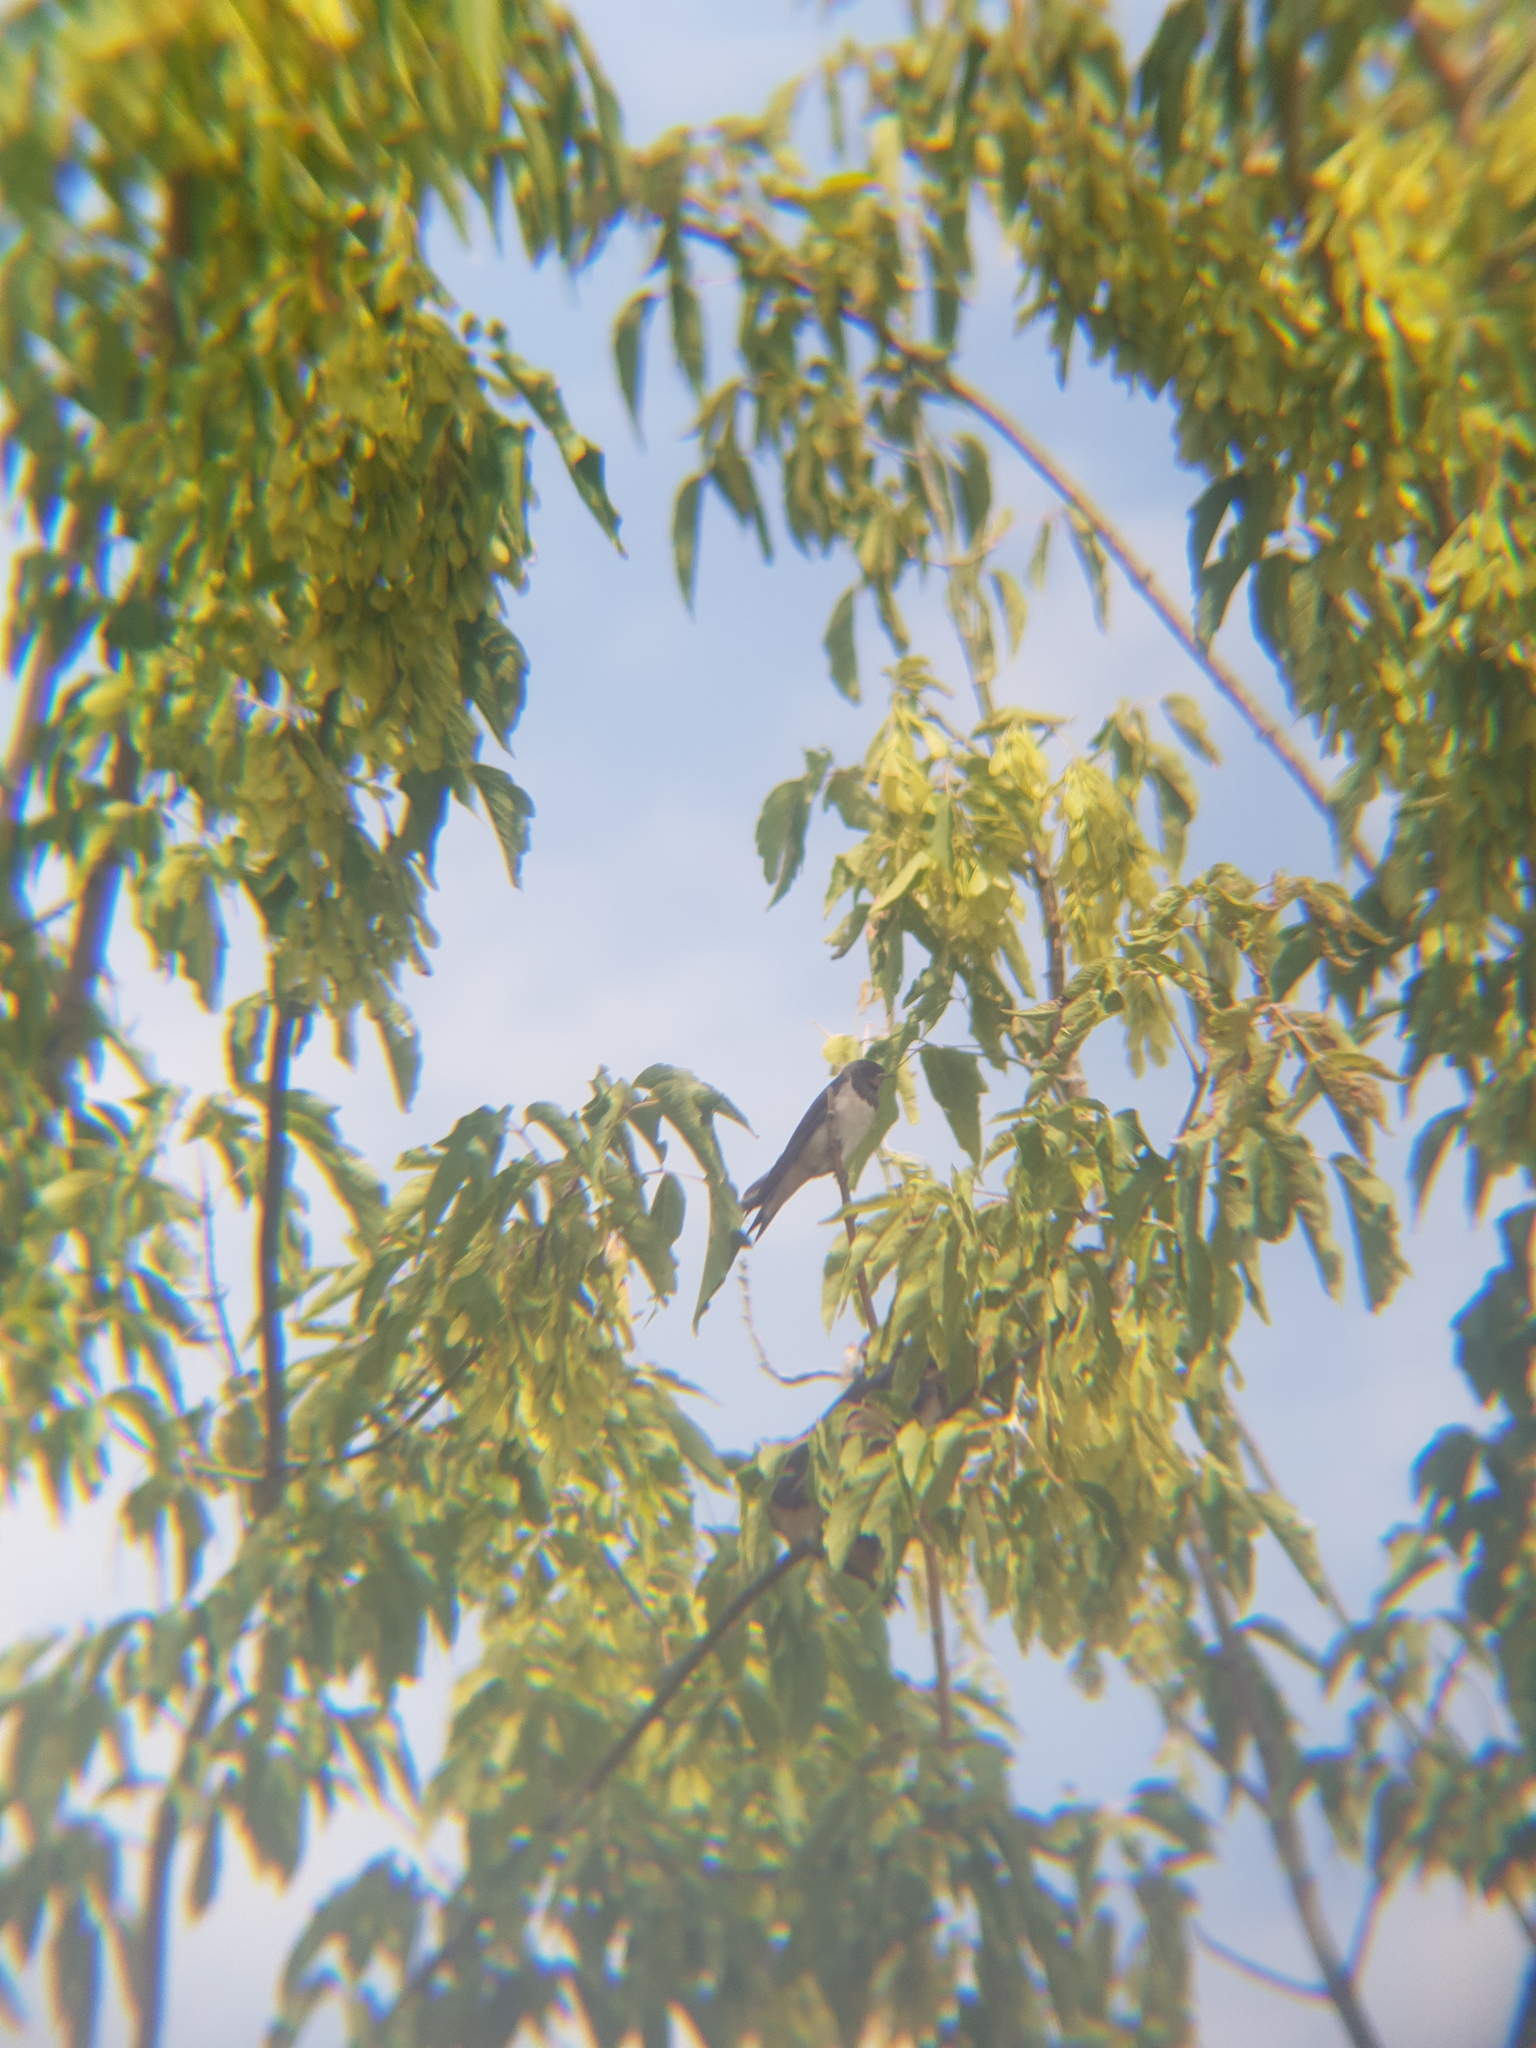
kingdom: Animalia
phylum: Chordata
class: Aves
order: Passeriformes
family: Hirundinidae
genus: Hirundo
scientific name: Hirundo rustica
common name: Barn swallow
